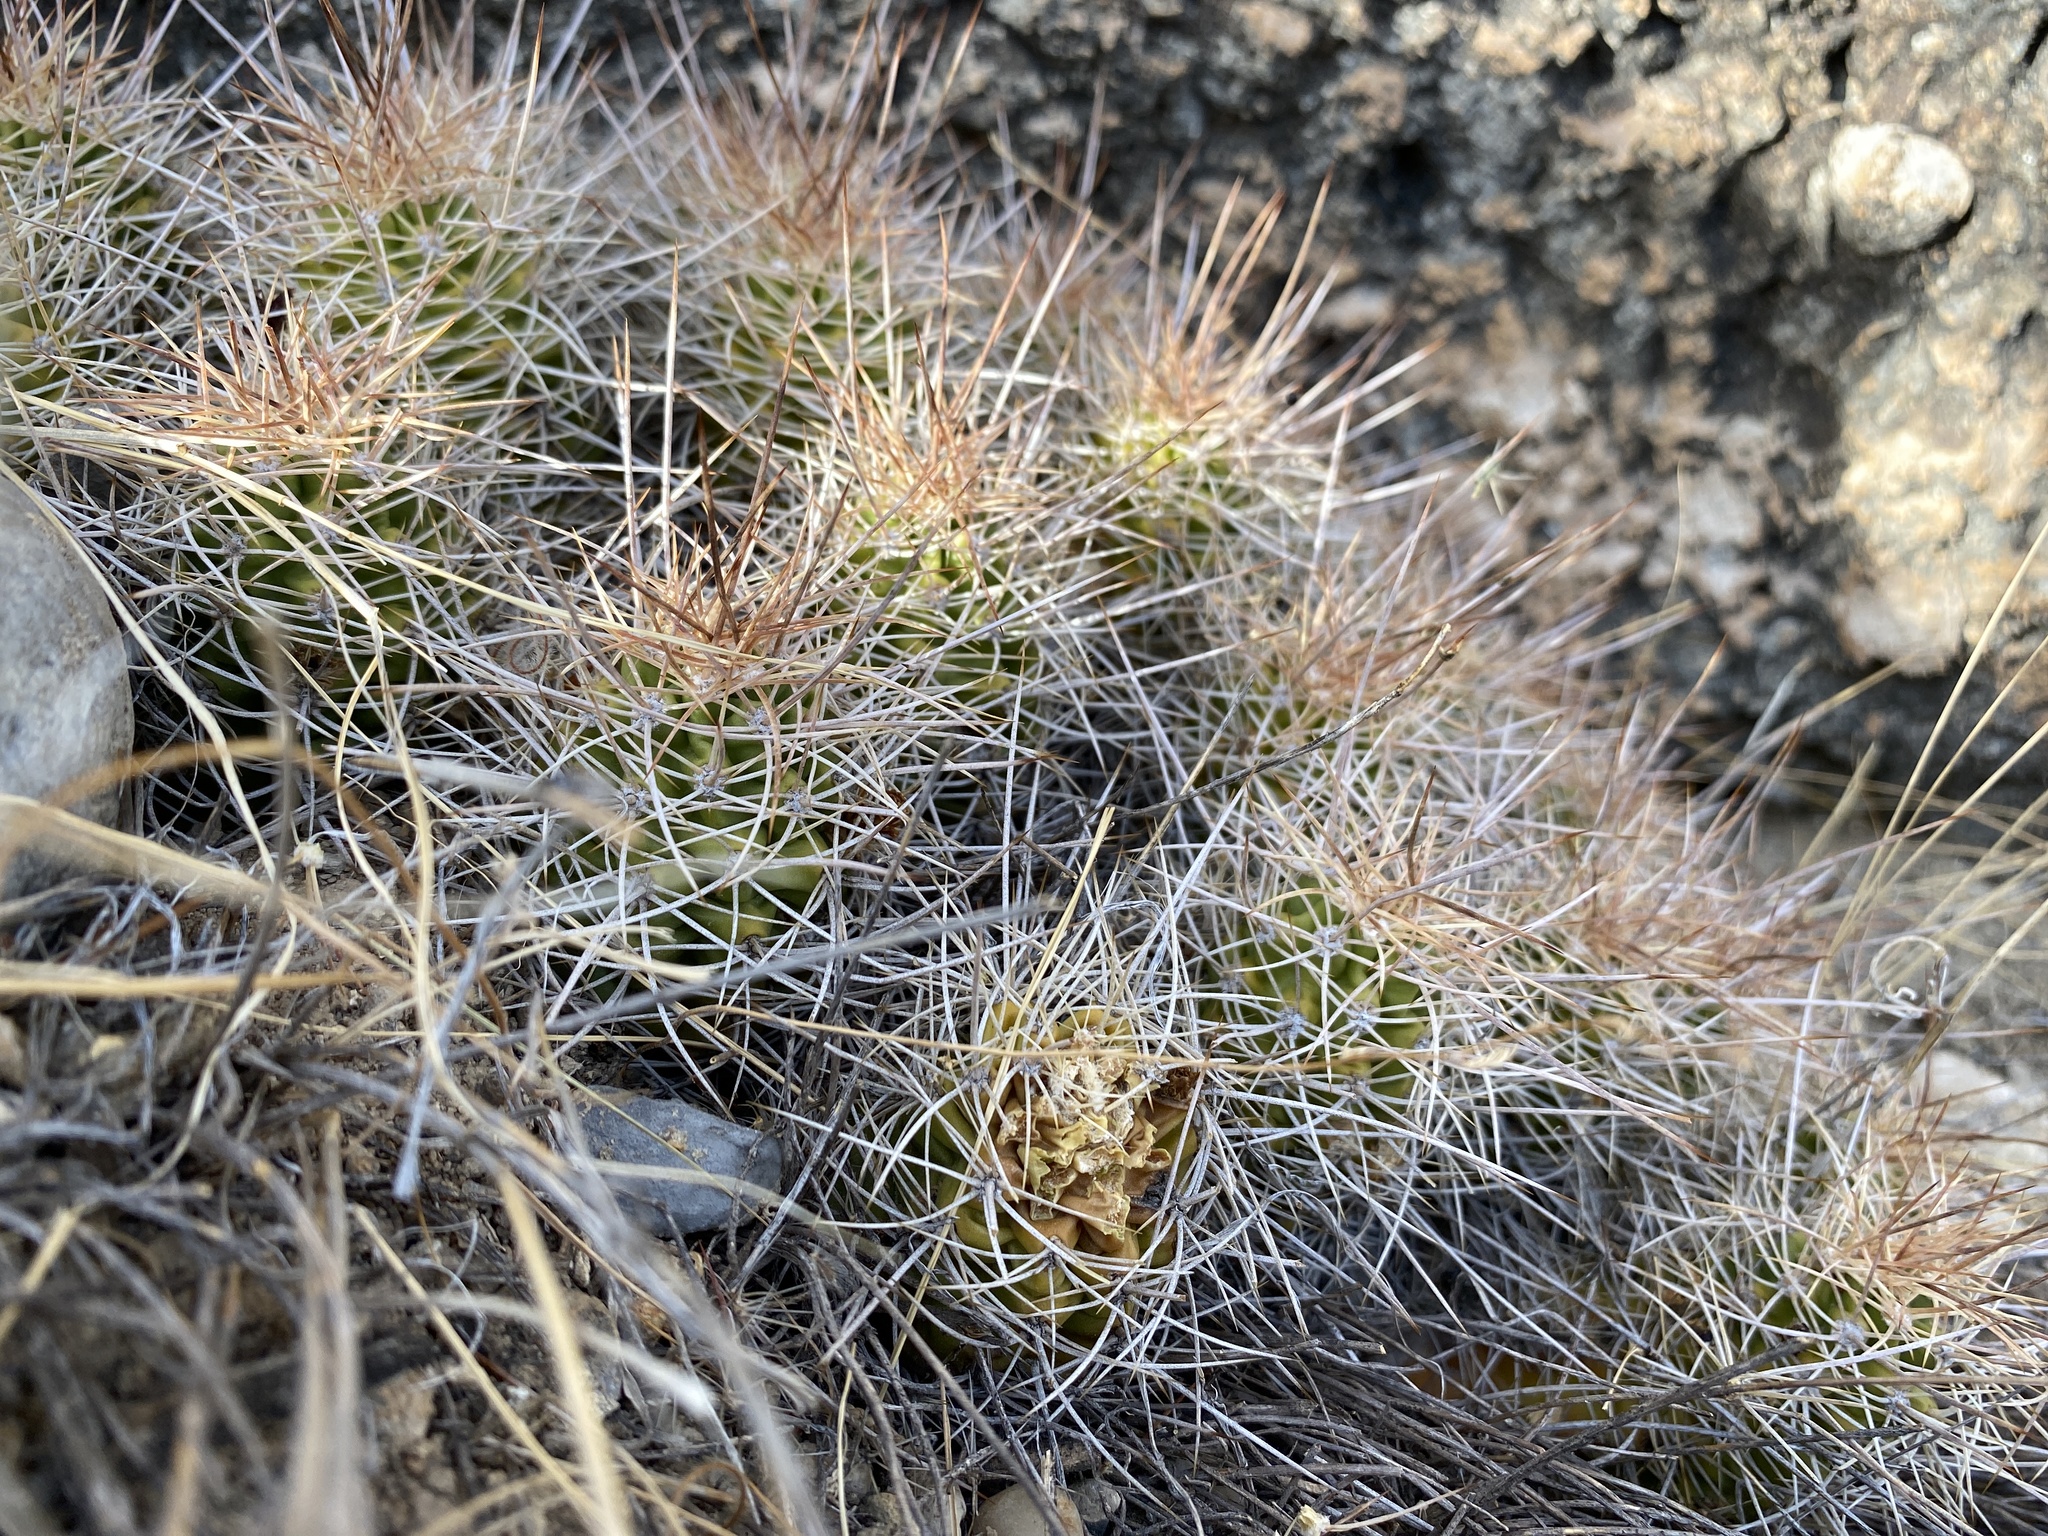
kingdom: Plantae
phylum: Tracheophyta
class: Magnoliopsida
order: Caryophyllales
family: Cactaceae
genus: Echinocereus
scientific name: Echinocereus triglochidiatus
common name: Claretcup hedgehog
